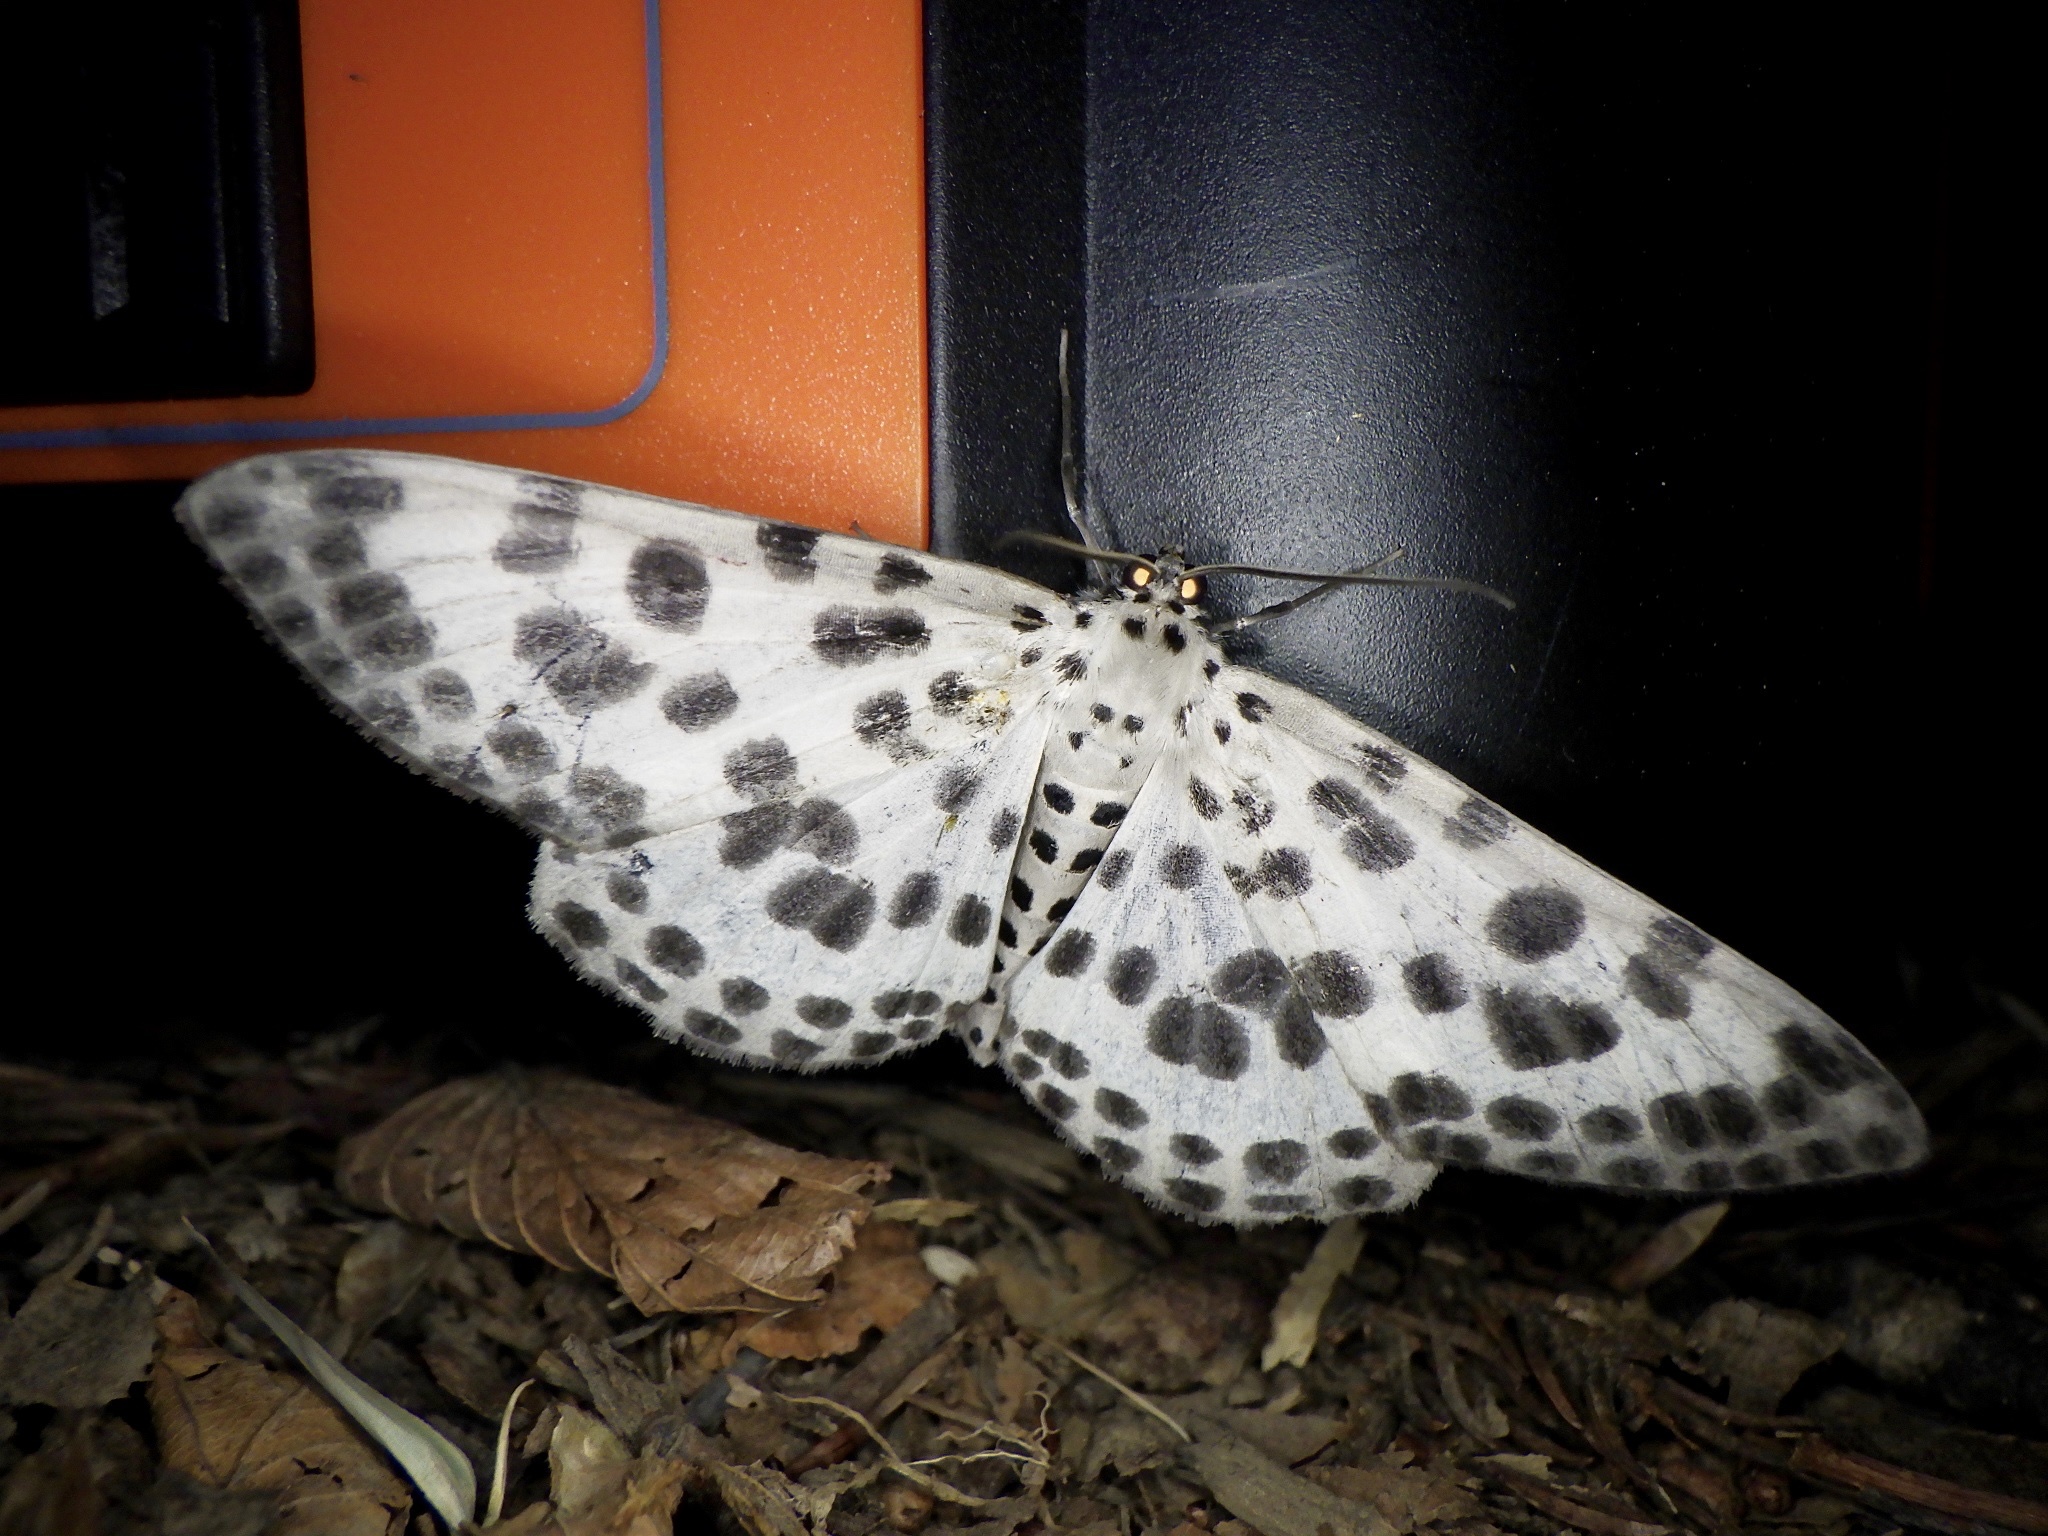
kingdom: Animalia
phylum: Arthropoda
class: Insecta
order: Lepidoptera
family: Geometridae
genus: Antipercnia
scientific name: Antipercnia albinigrata
